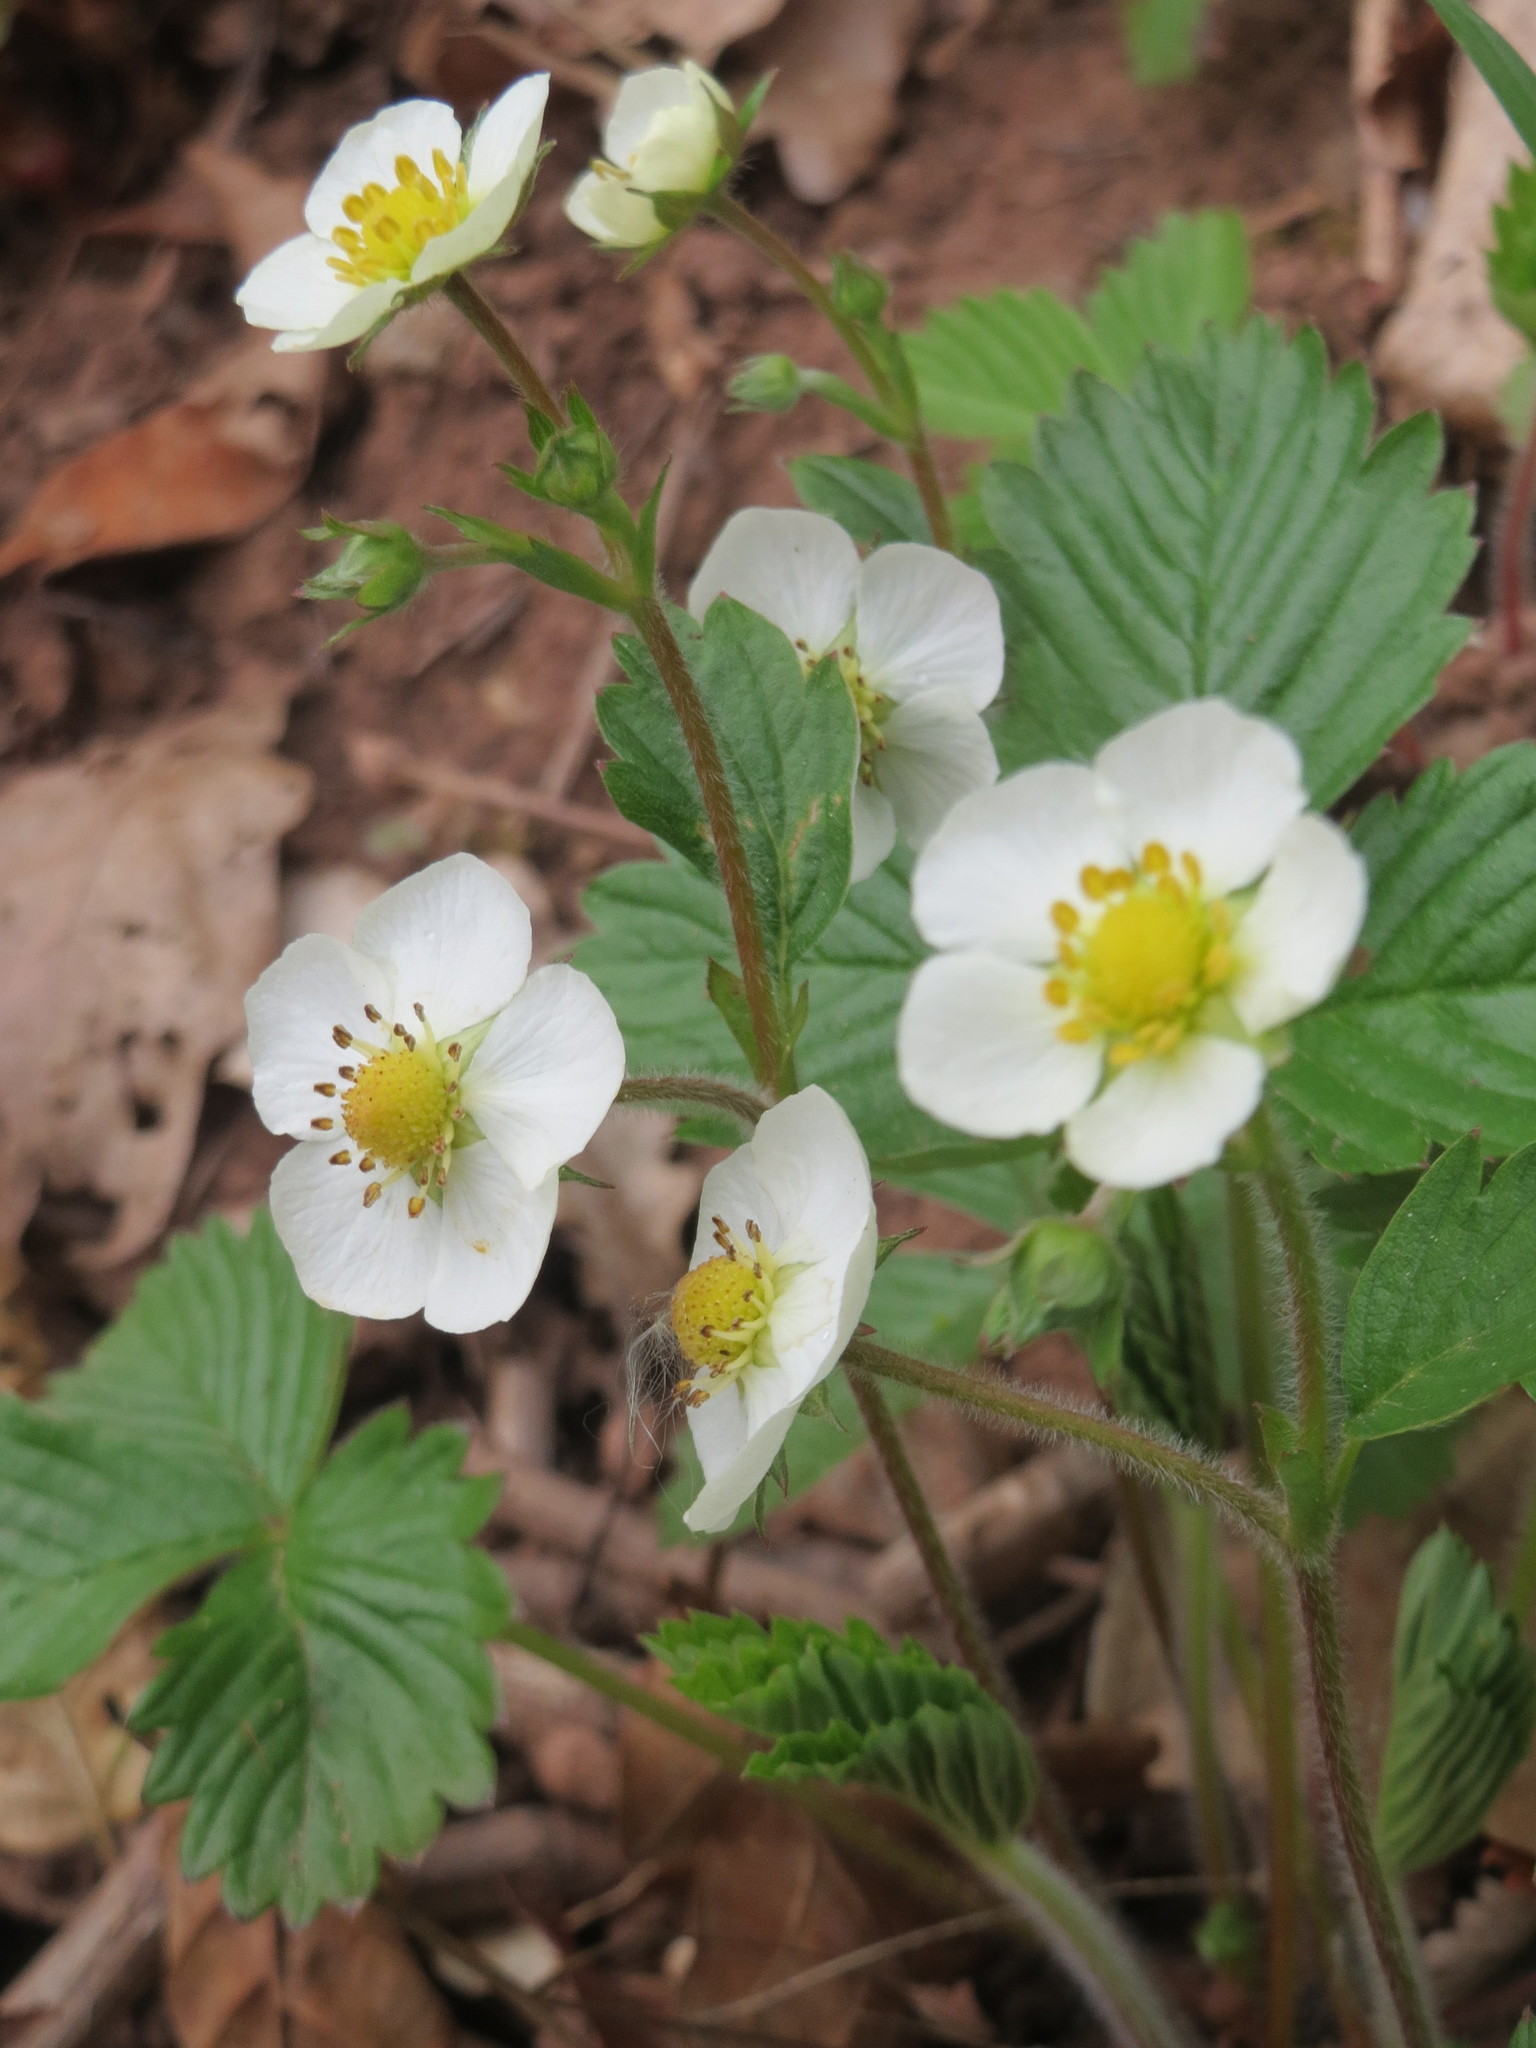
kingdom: Plantae
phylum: Tracheophyta
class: Magnoliopsida
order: Rosales
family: Rosaceae
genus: Fragaria
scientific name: Fragaria vesca
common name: Wild strawberry
